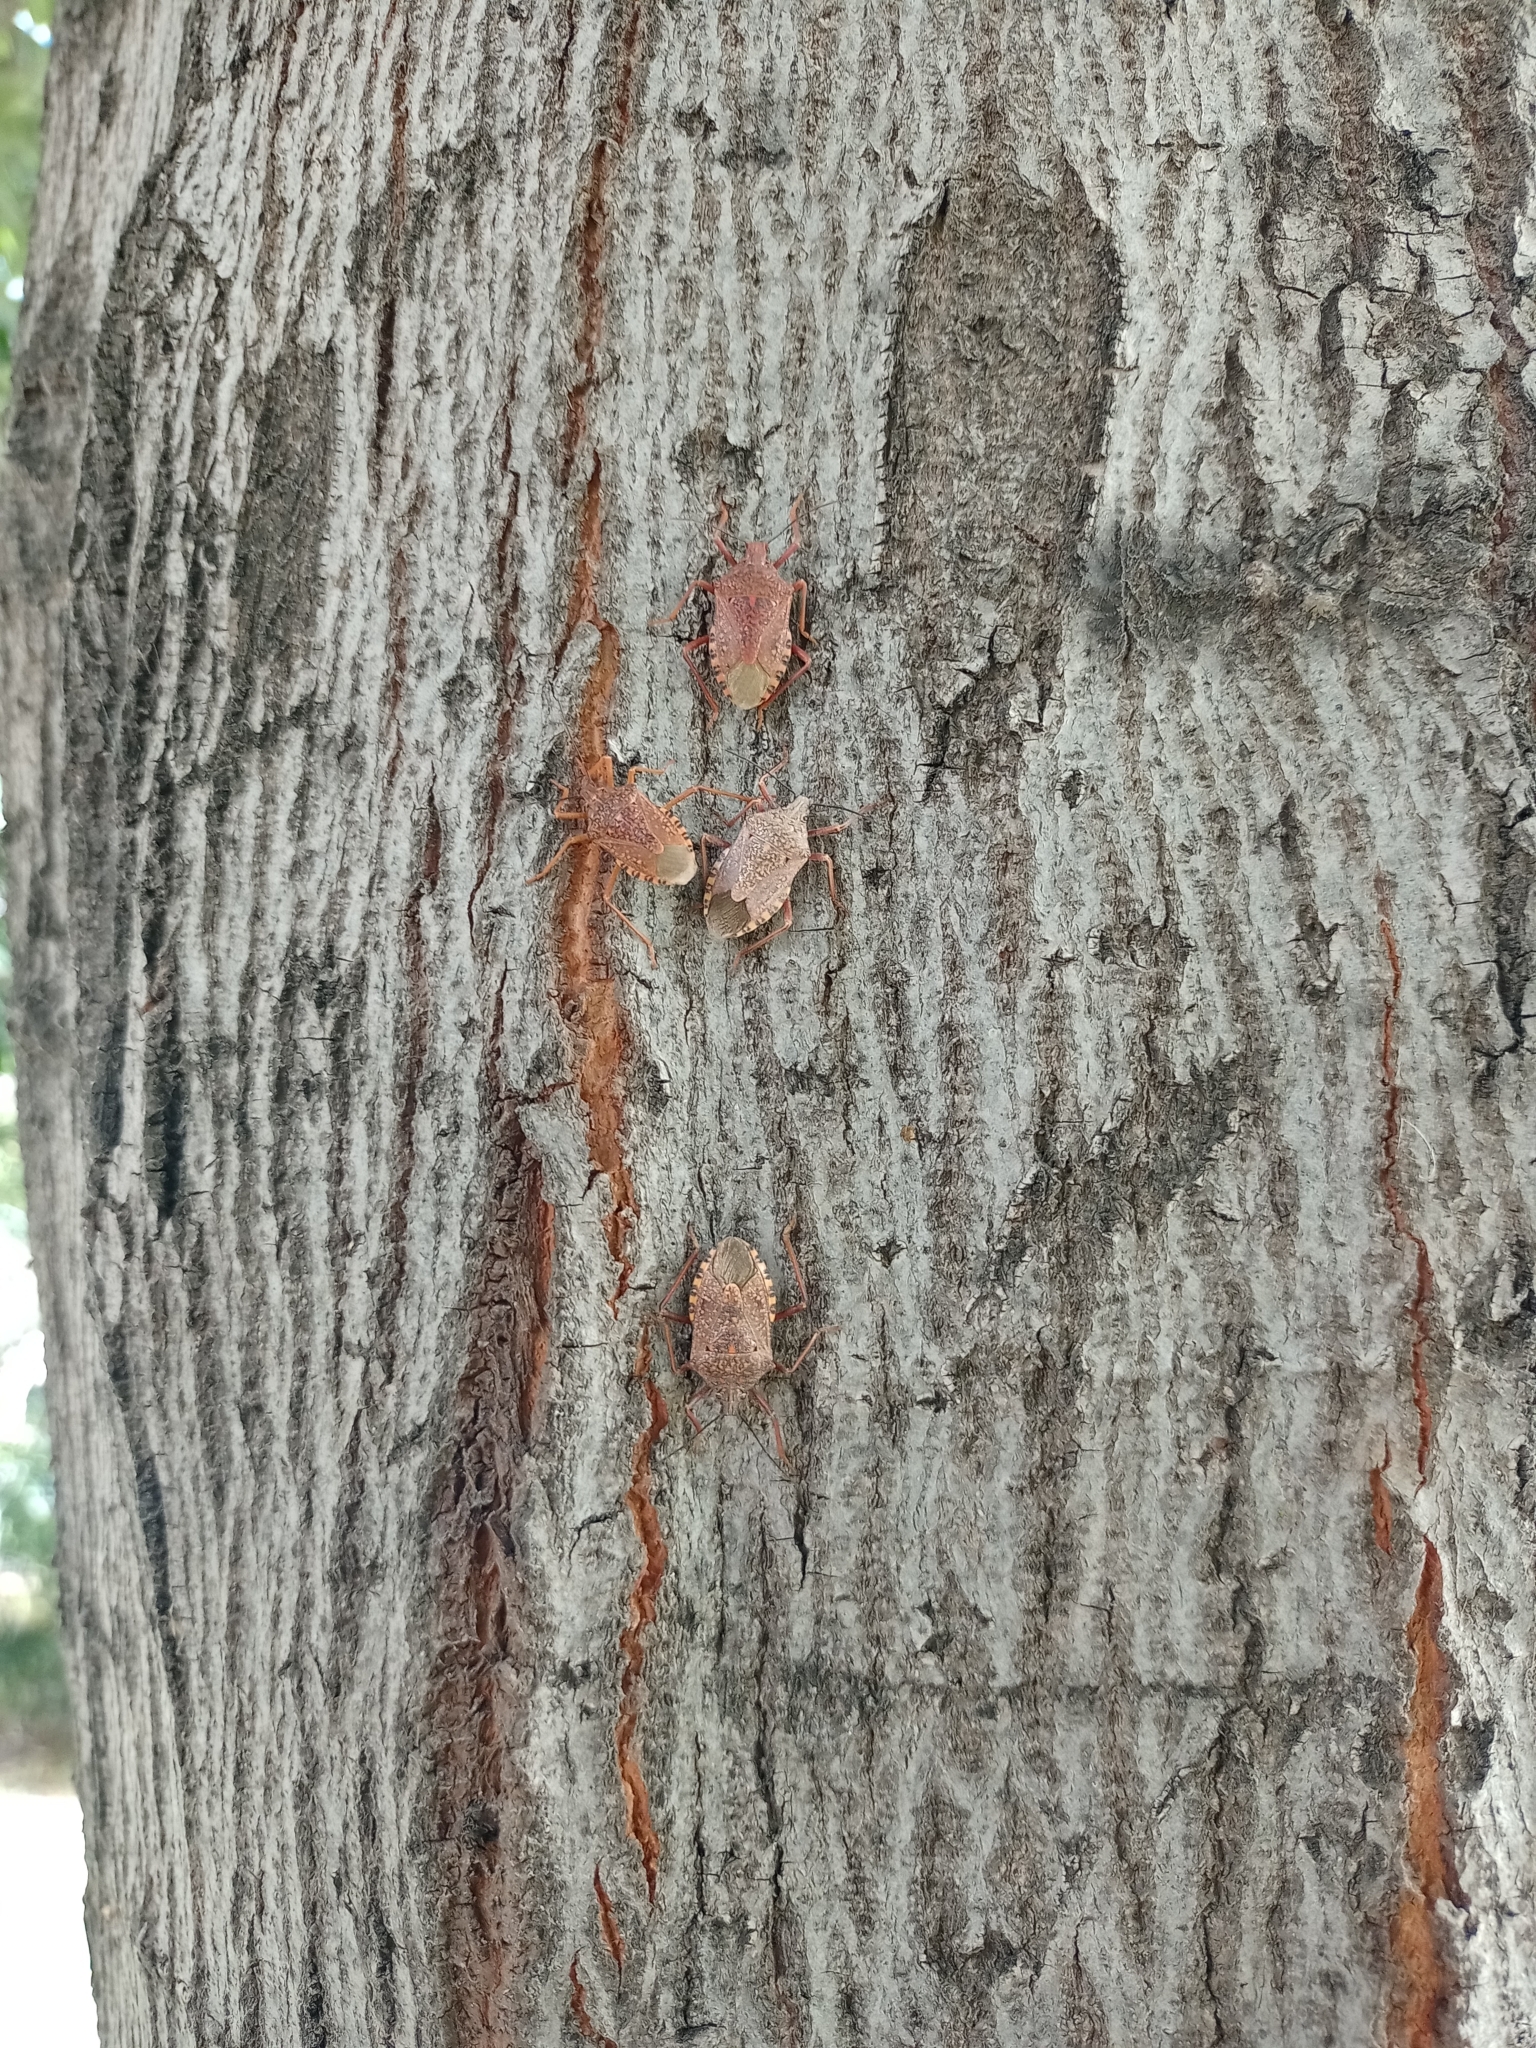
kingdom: Animalia
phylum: Arthropoda
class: Insecta
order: Hemiptera
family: Pentatomidae
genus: Apodiphus
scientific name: Apodiphus
